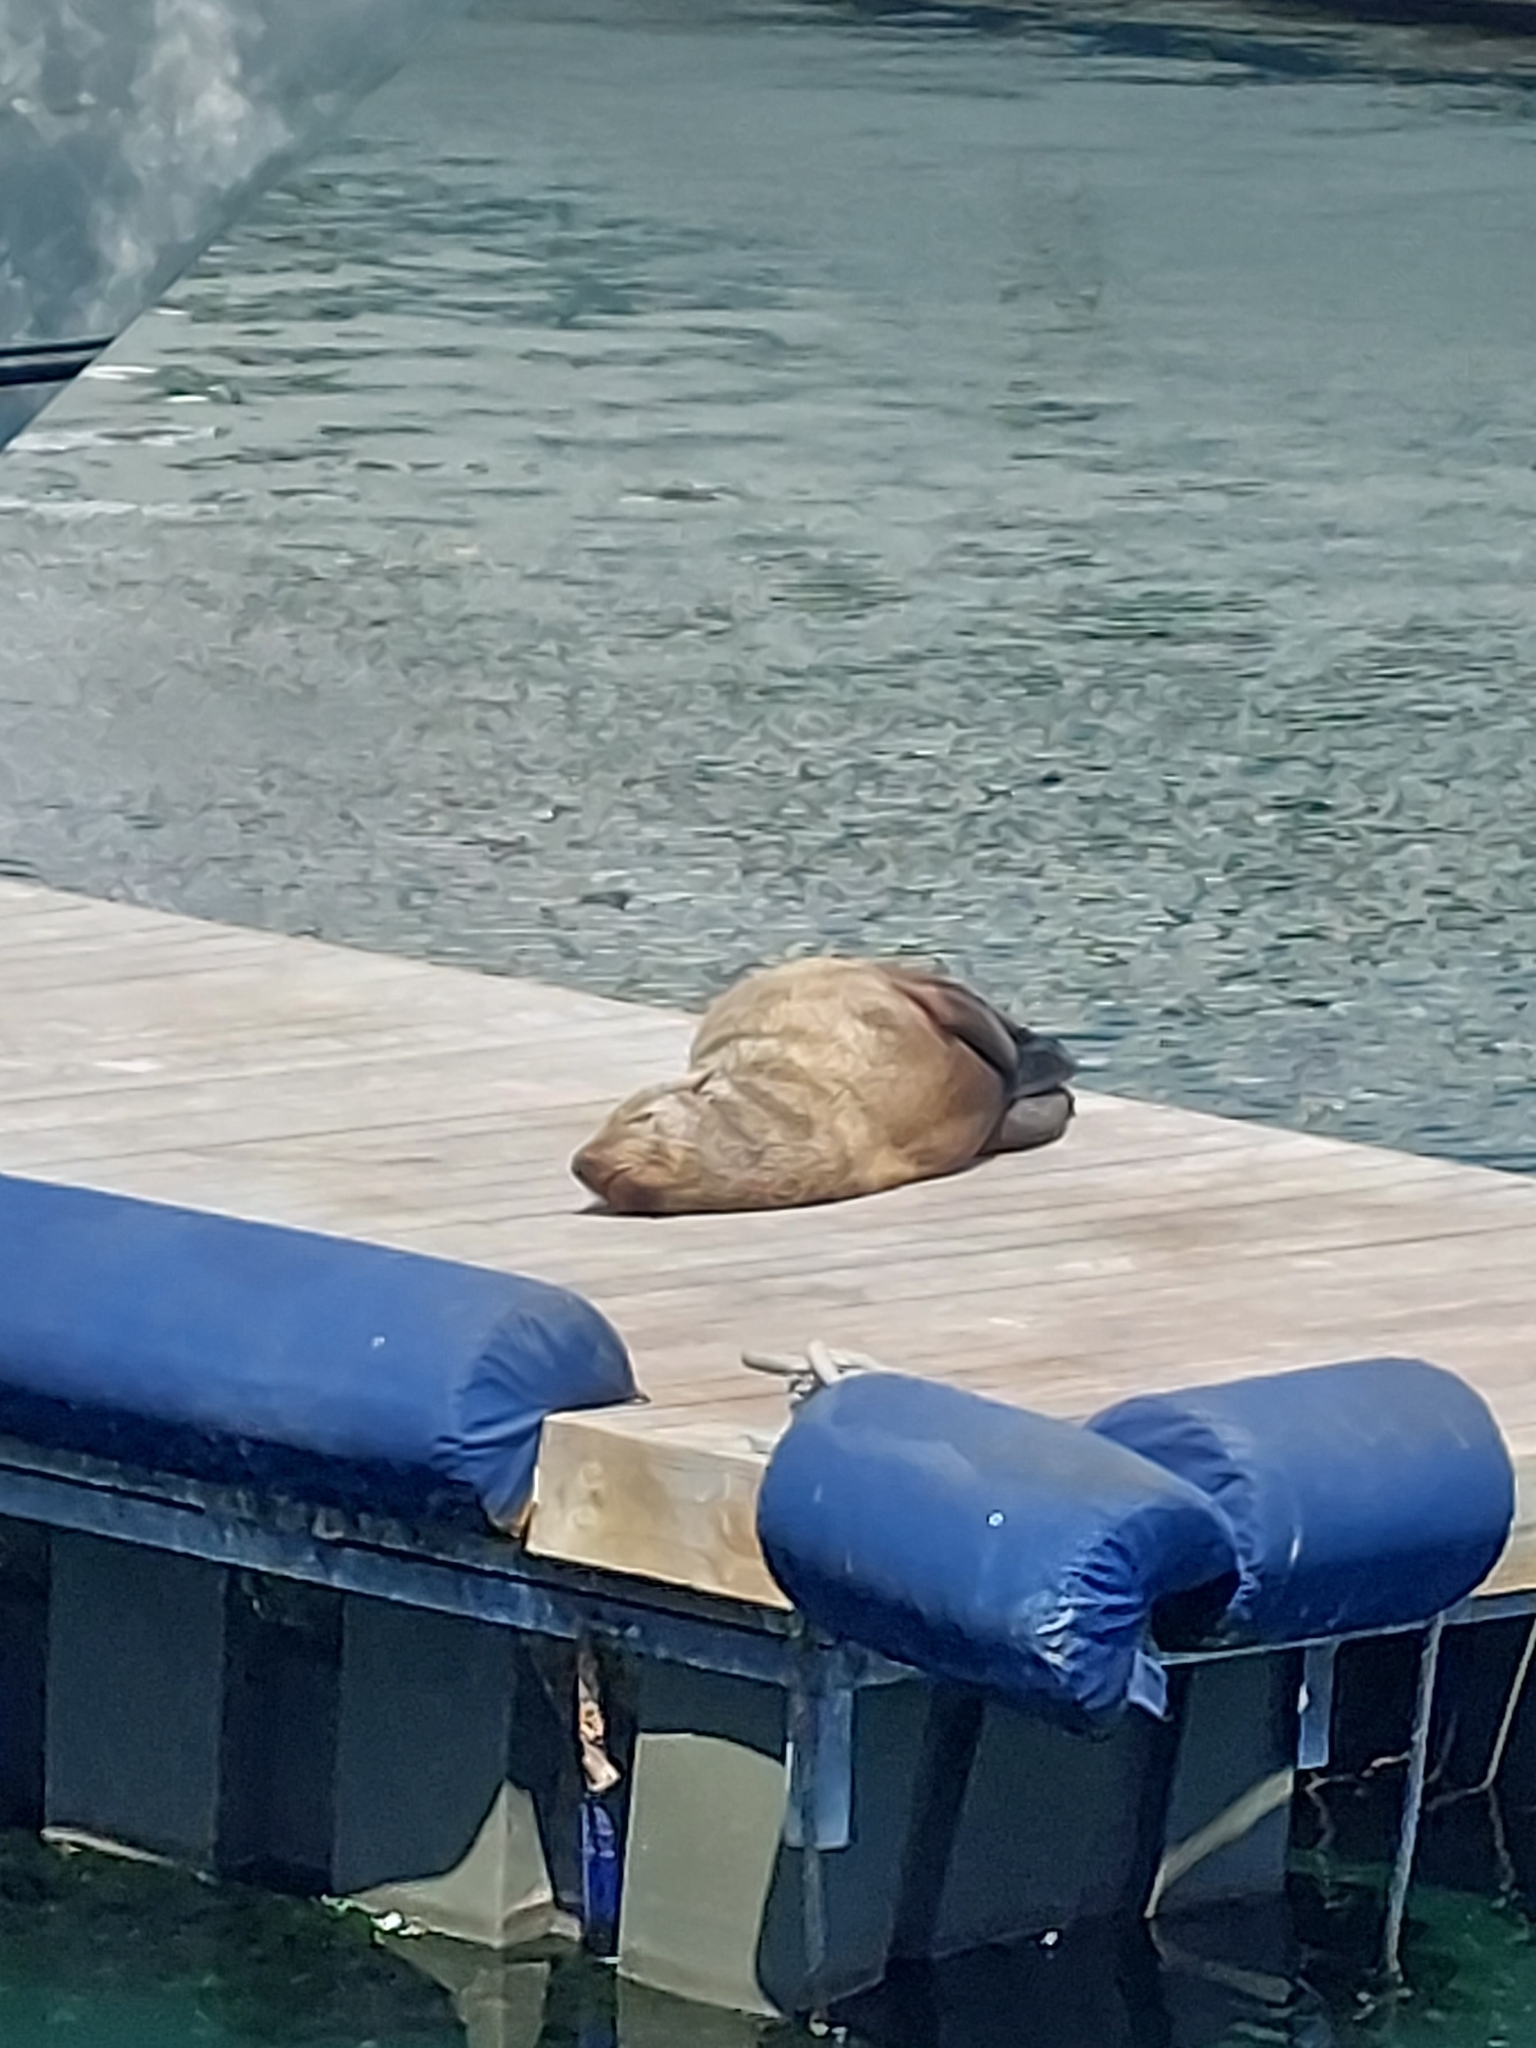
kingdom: Animalia
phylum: Chordata
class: Mammalia
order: Carnivora
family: Otariidae
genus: Arctocephalus
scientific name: Arctocephalus pusillus
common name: Brown fur seal
